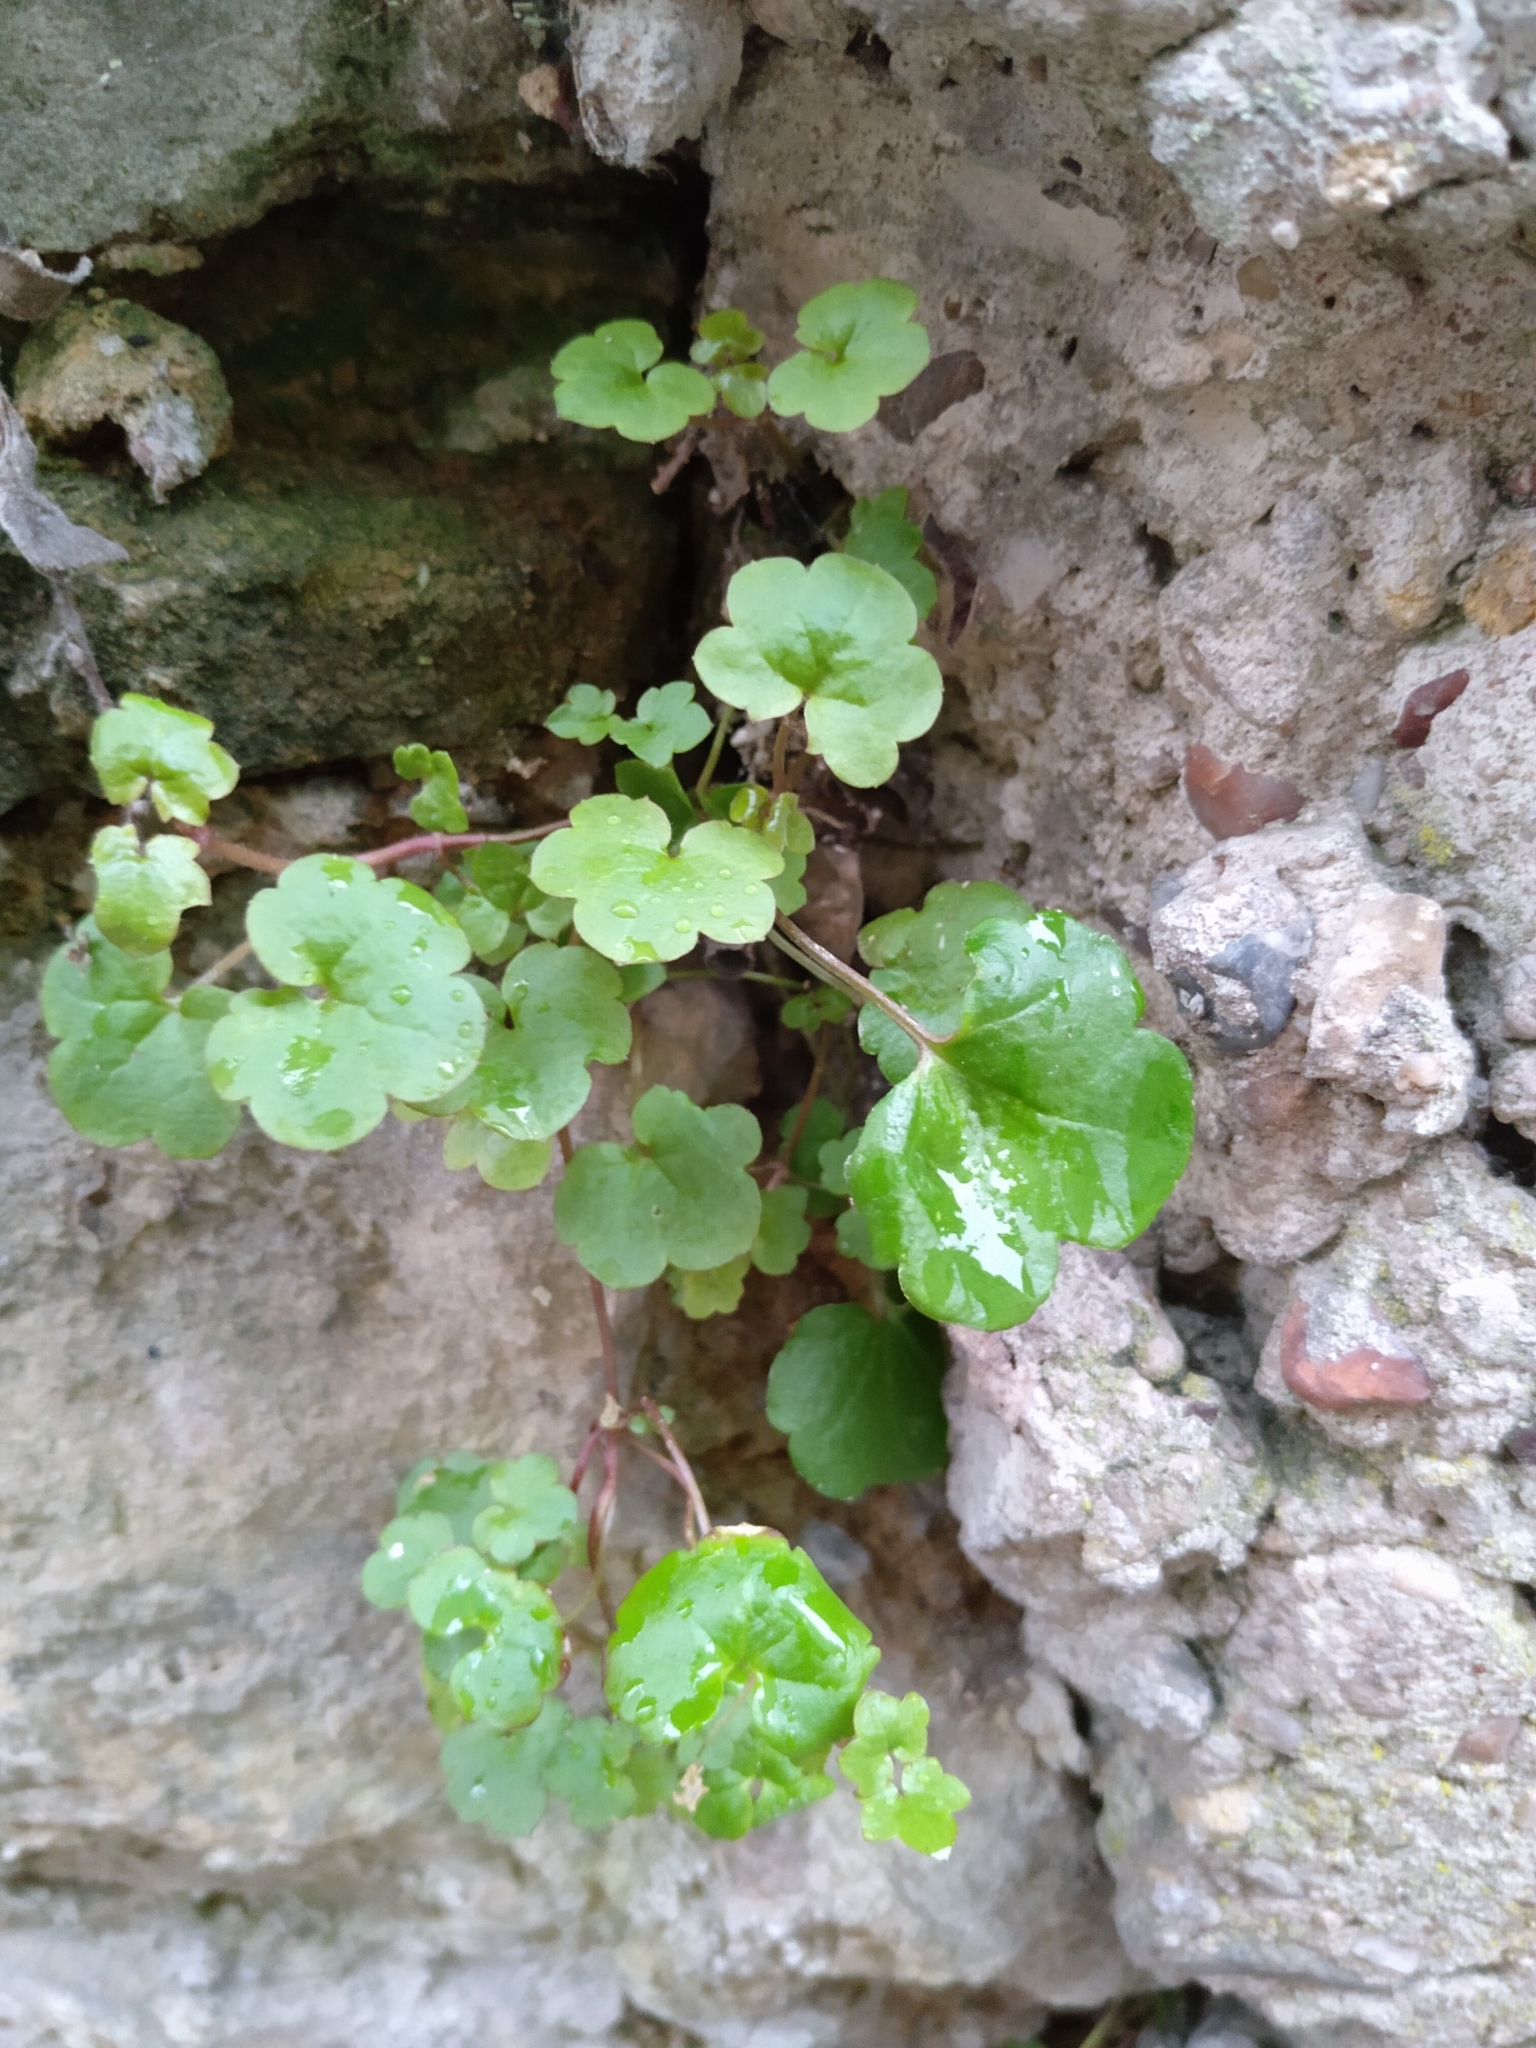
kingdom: Plantae
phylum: Tracheophyta
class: Magnoliopsida
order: Lamiales
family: Plantaginaceae
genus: Cymbalaria
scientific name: Cymbalaria muralis
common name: Ivy-leaved toadflax
